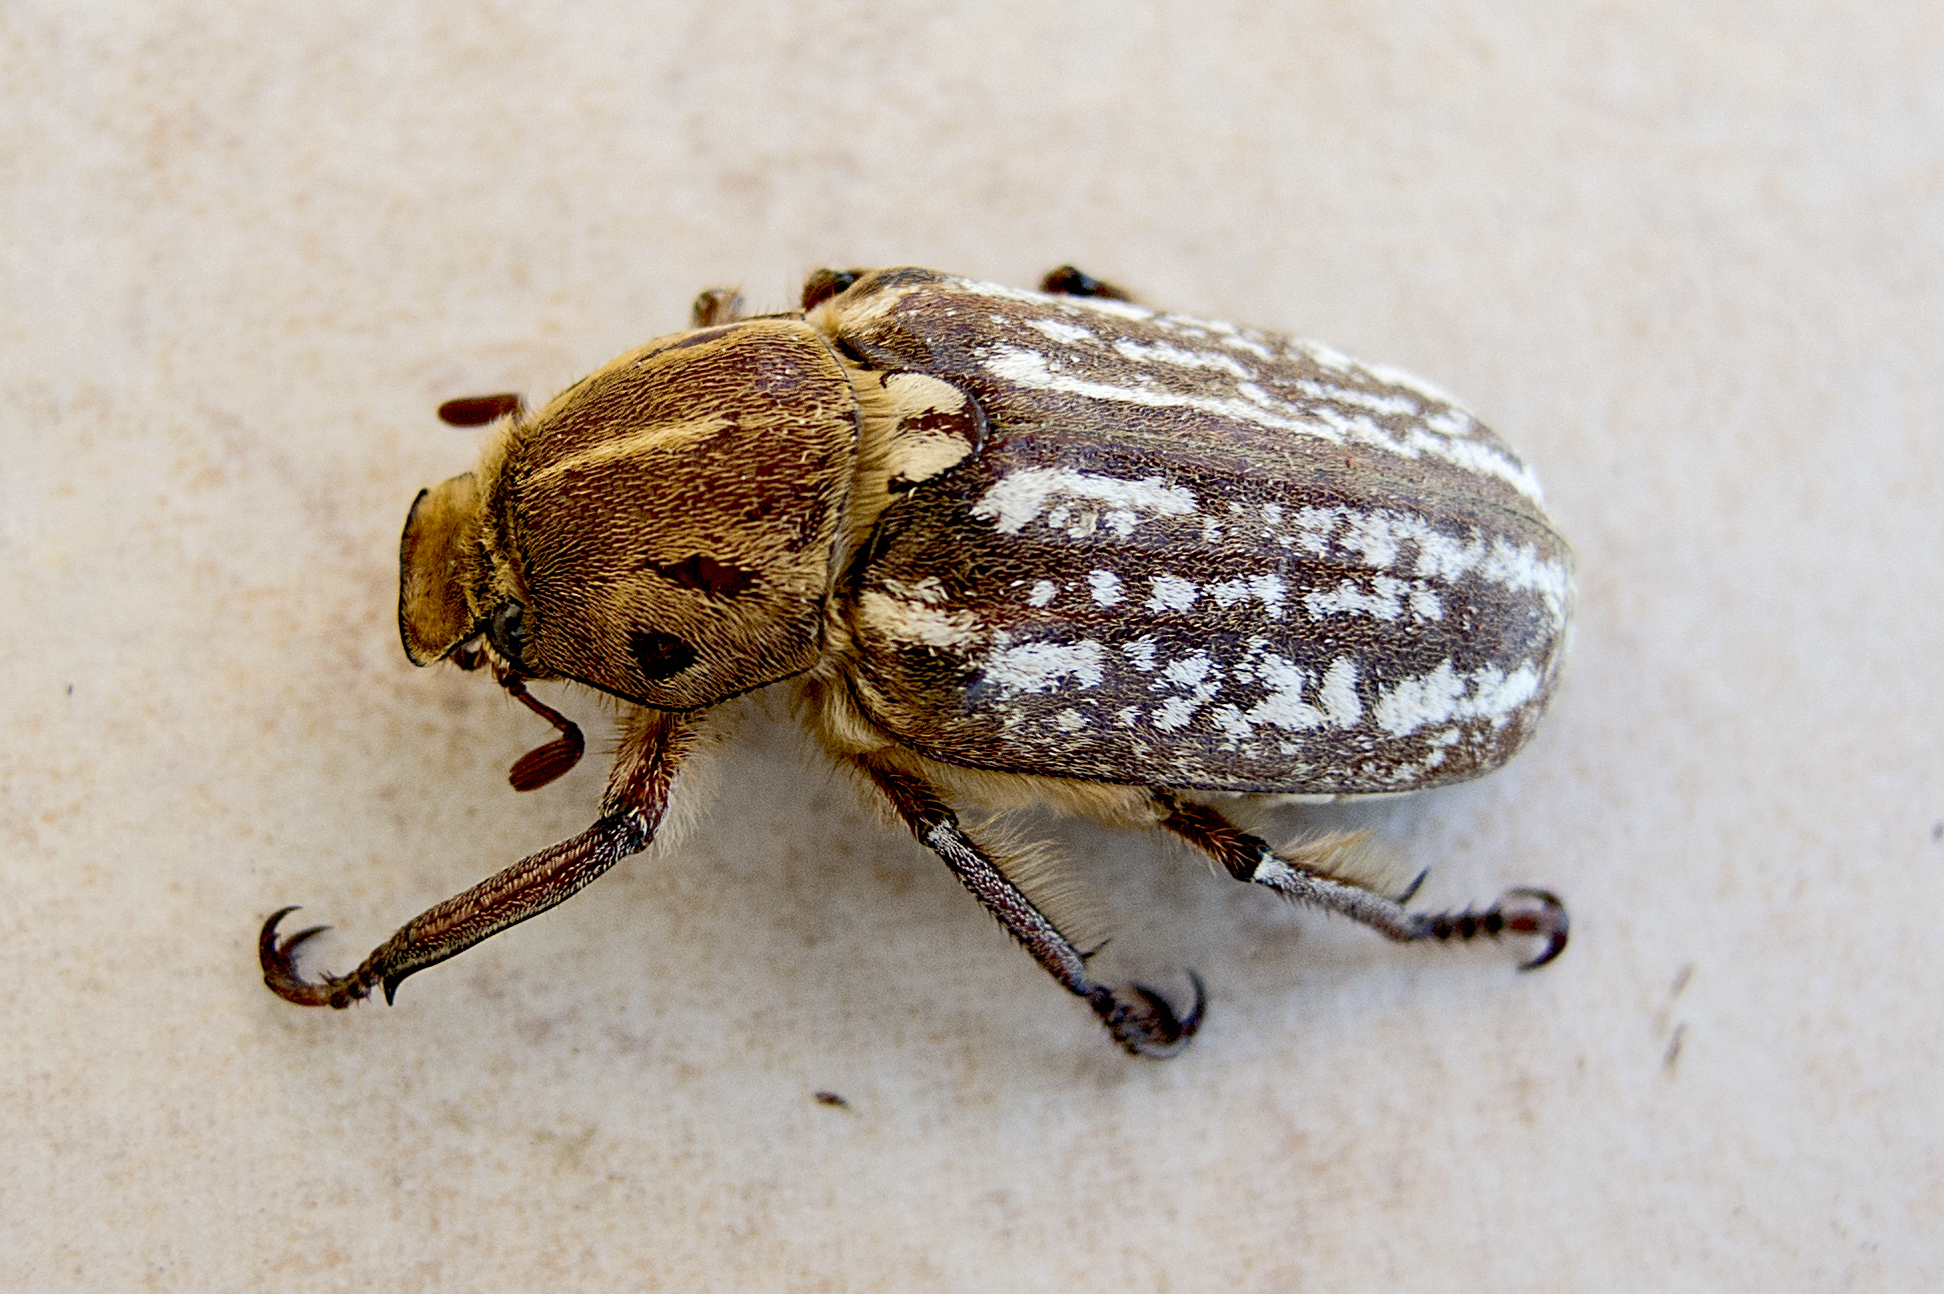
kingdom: Animalia
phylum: Arthropoda
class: Insecta
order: Coleoptera
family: Scarabaeidae
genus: Anoxia
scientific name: Anoxia orientalis
